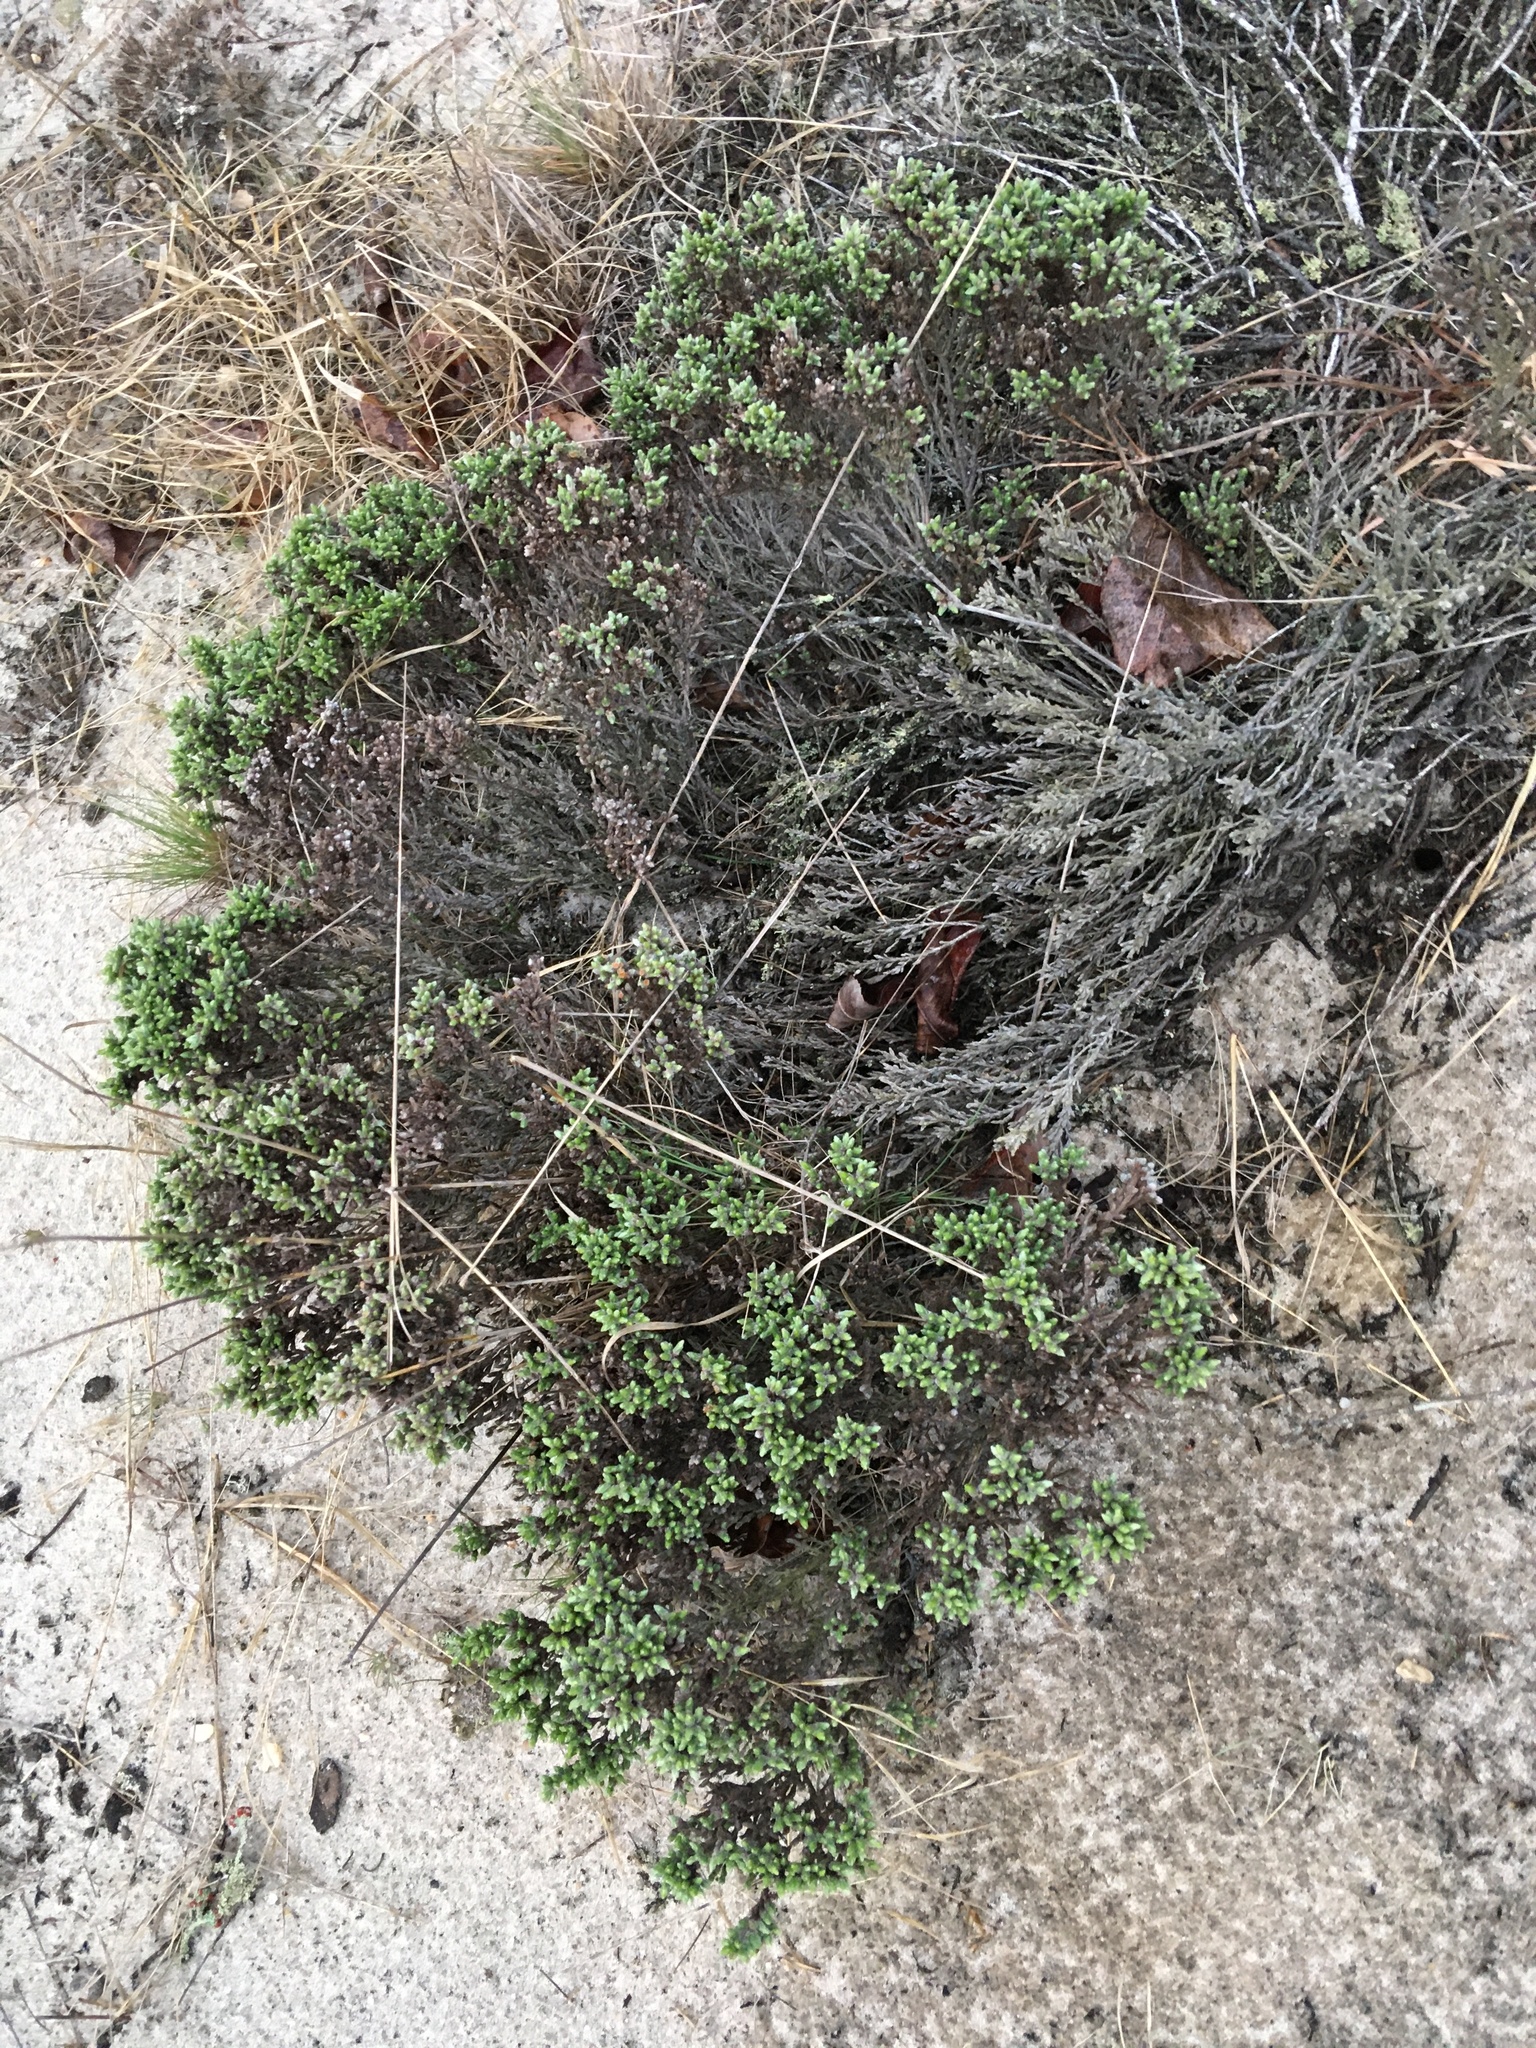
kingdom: Plantae
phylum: Tracheophyta
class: Magnoliopsida
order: Malvales
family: Cistaceae
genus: Hudsonia
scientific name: Hudsonia tomentosa
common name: Beach-heath
